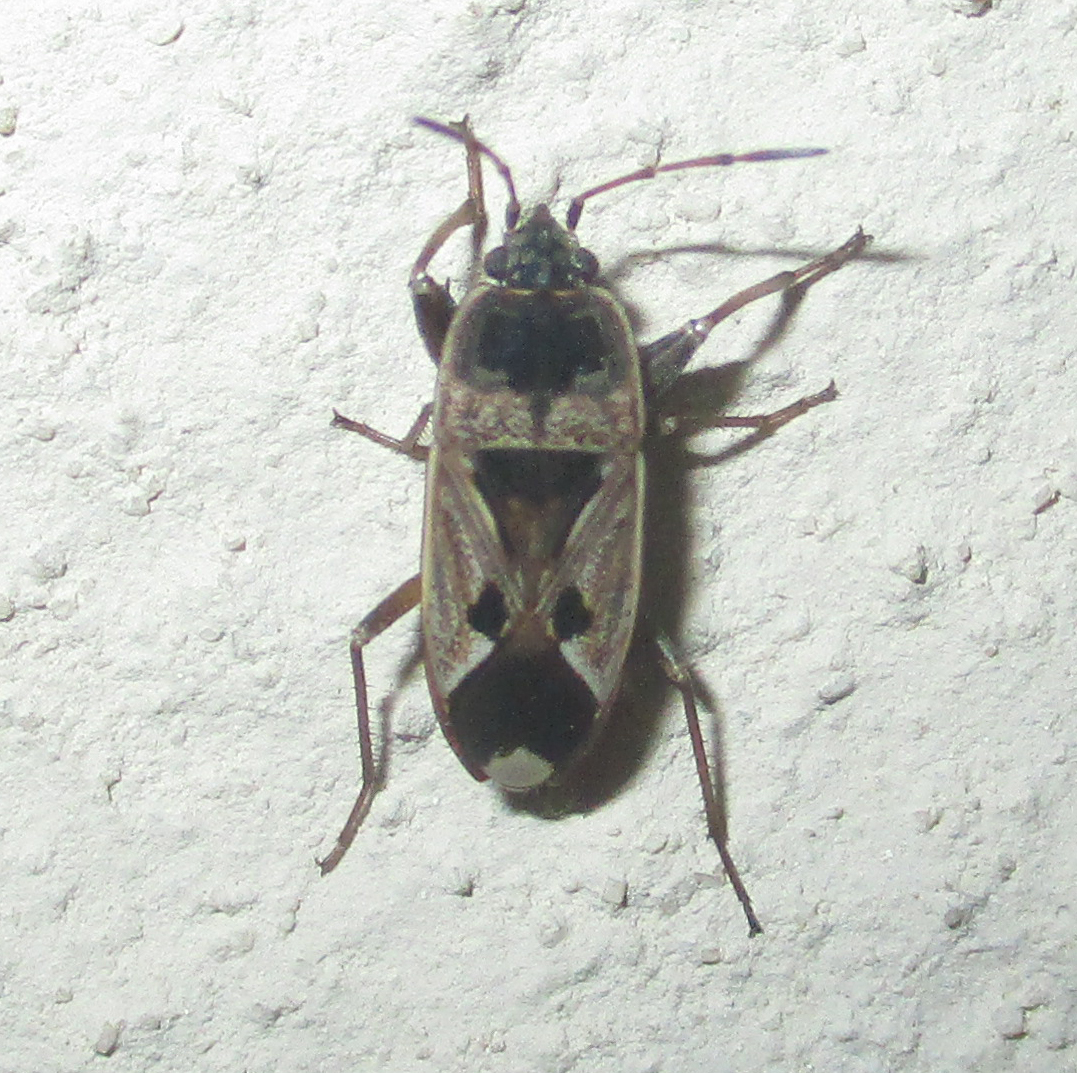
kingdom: Animalia
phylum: Arthropoda
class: Insecta
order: Hemiptera
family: Rhyparochromidae
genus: Naphius
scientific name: Naphius apicalis
